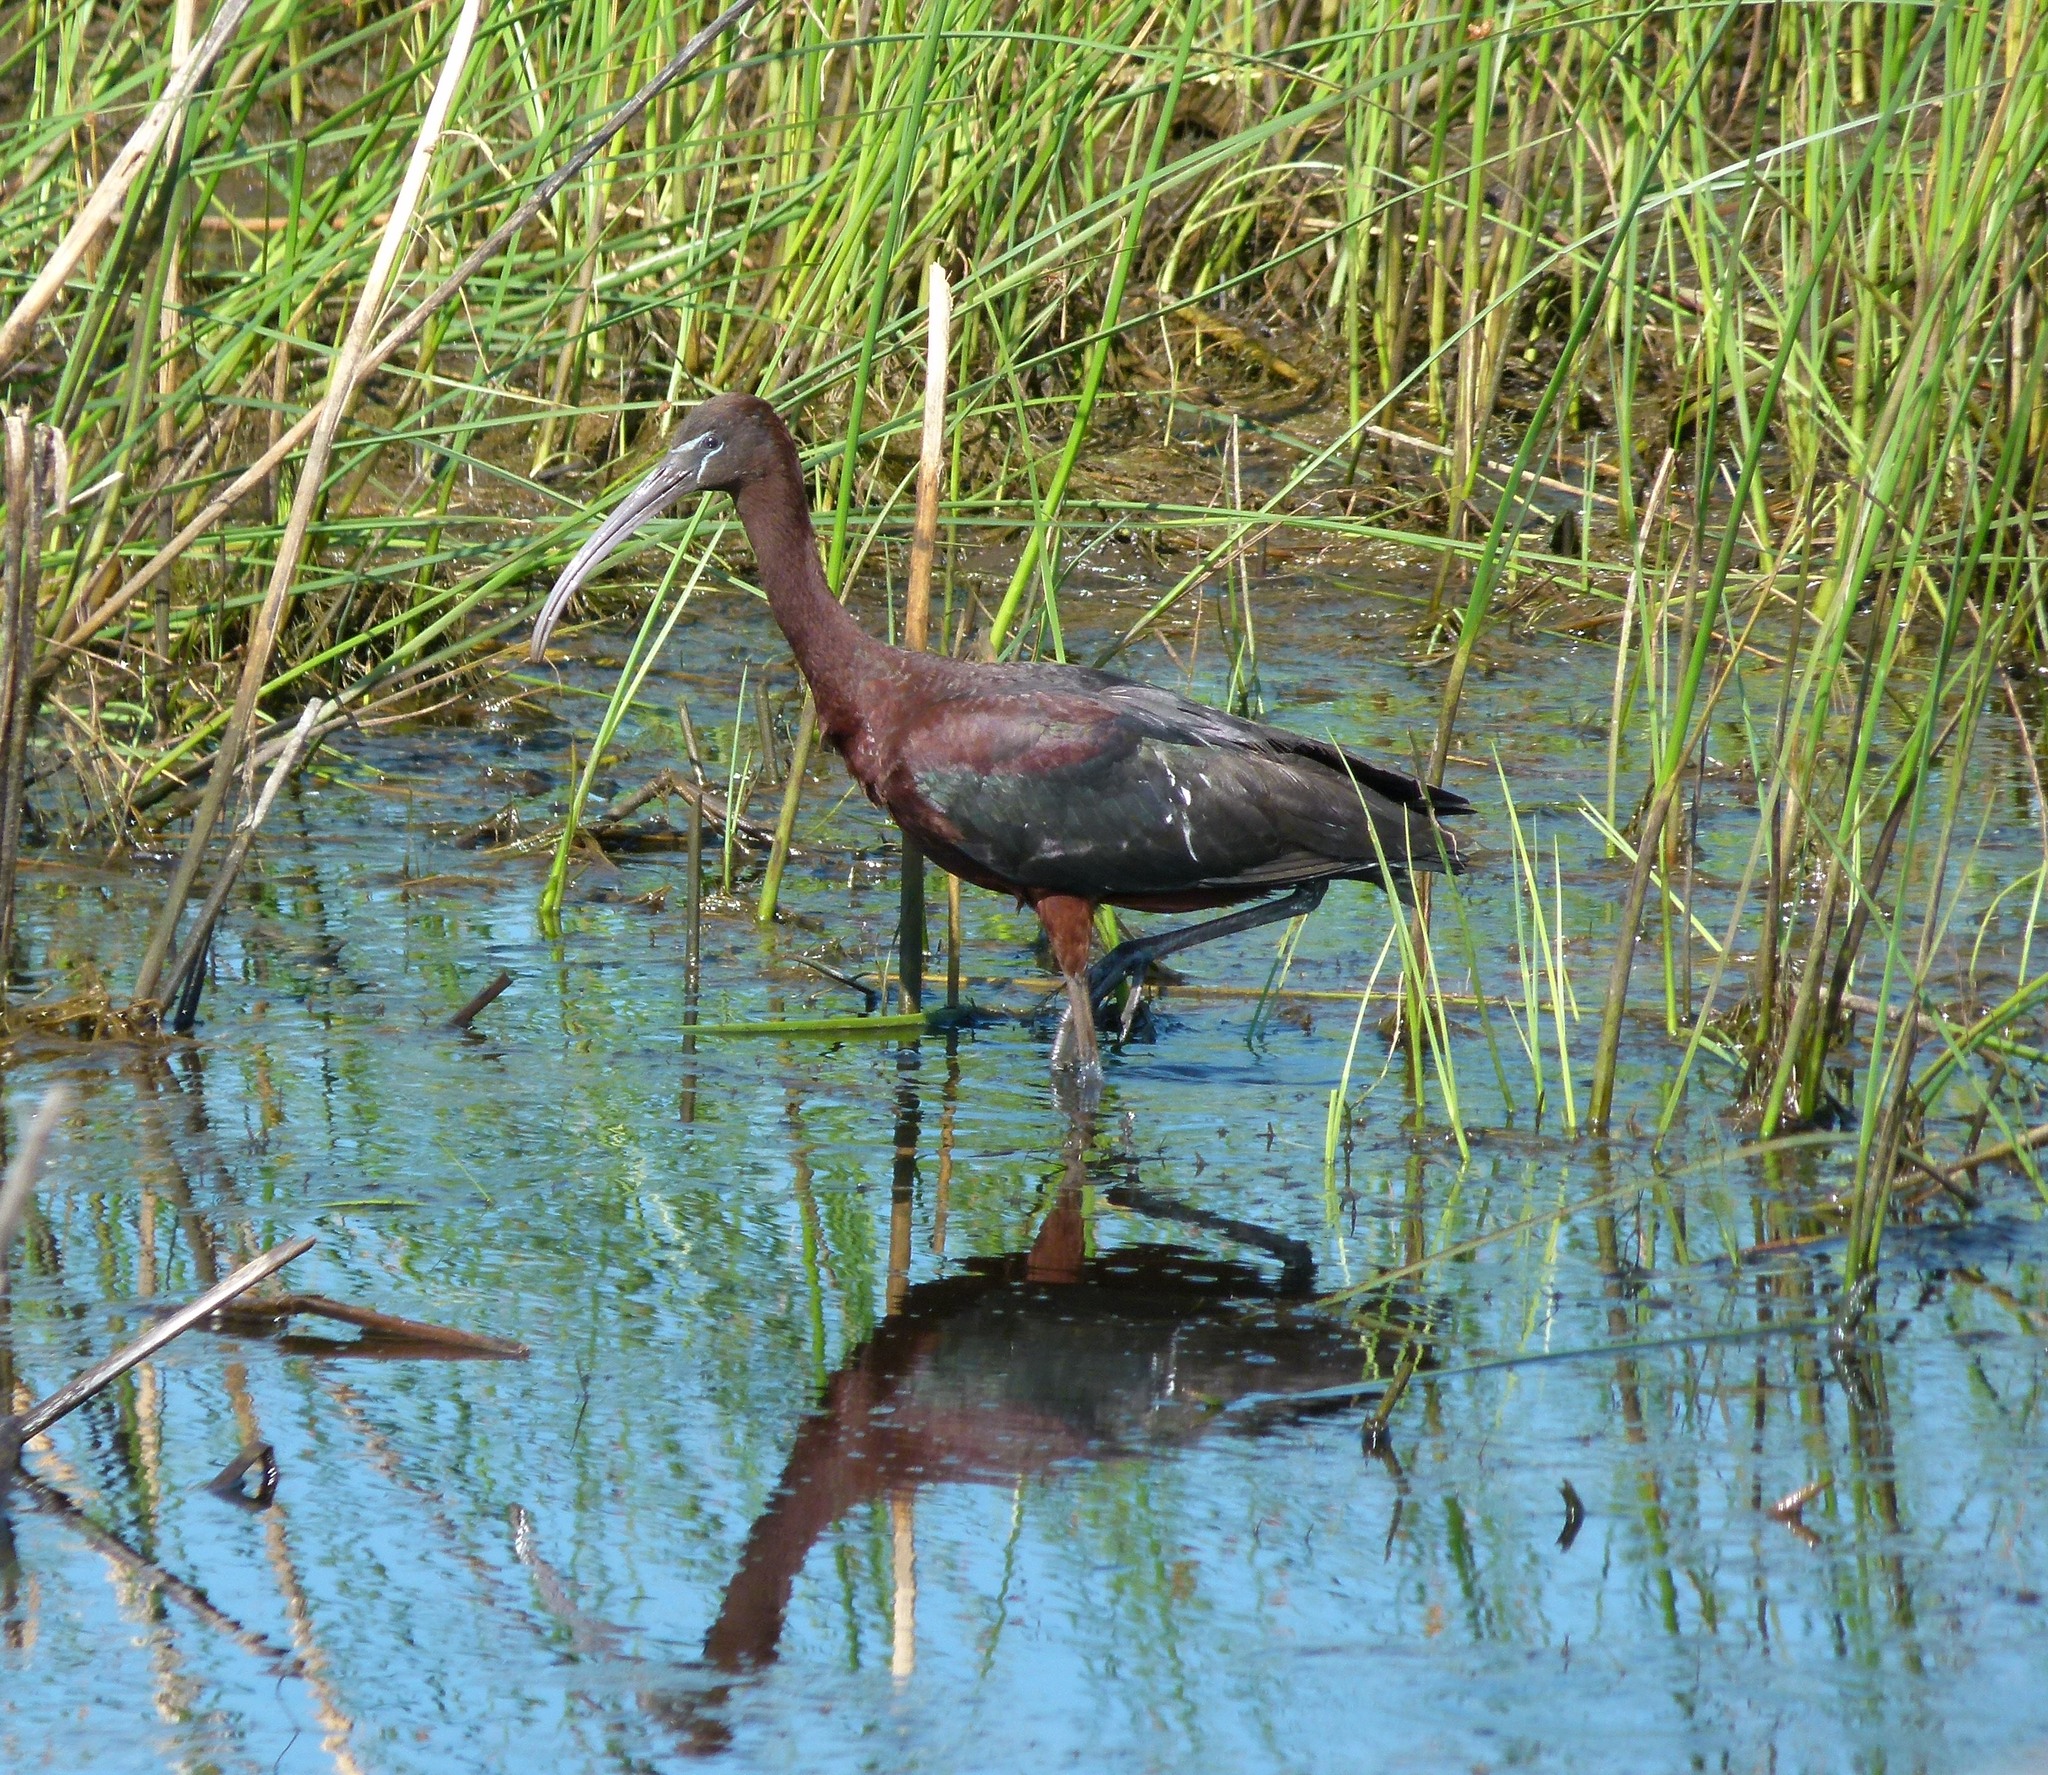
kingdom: Animalia
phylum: Chordata
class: Aves
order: Pelecaniformes
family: Threskiornithidae
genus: Plegadis
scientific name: Plegadis falcinellus
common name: Glossy ibis
